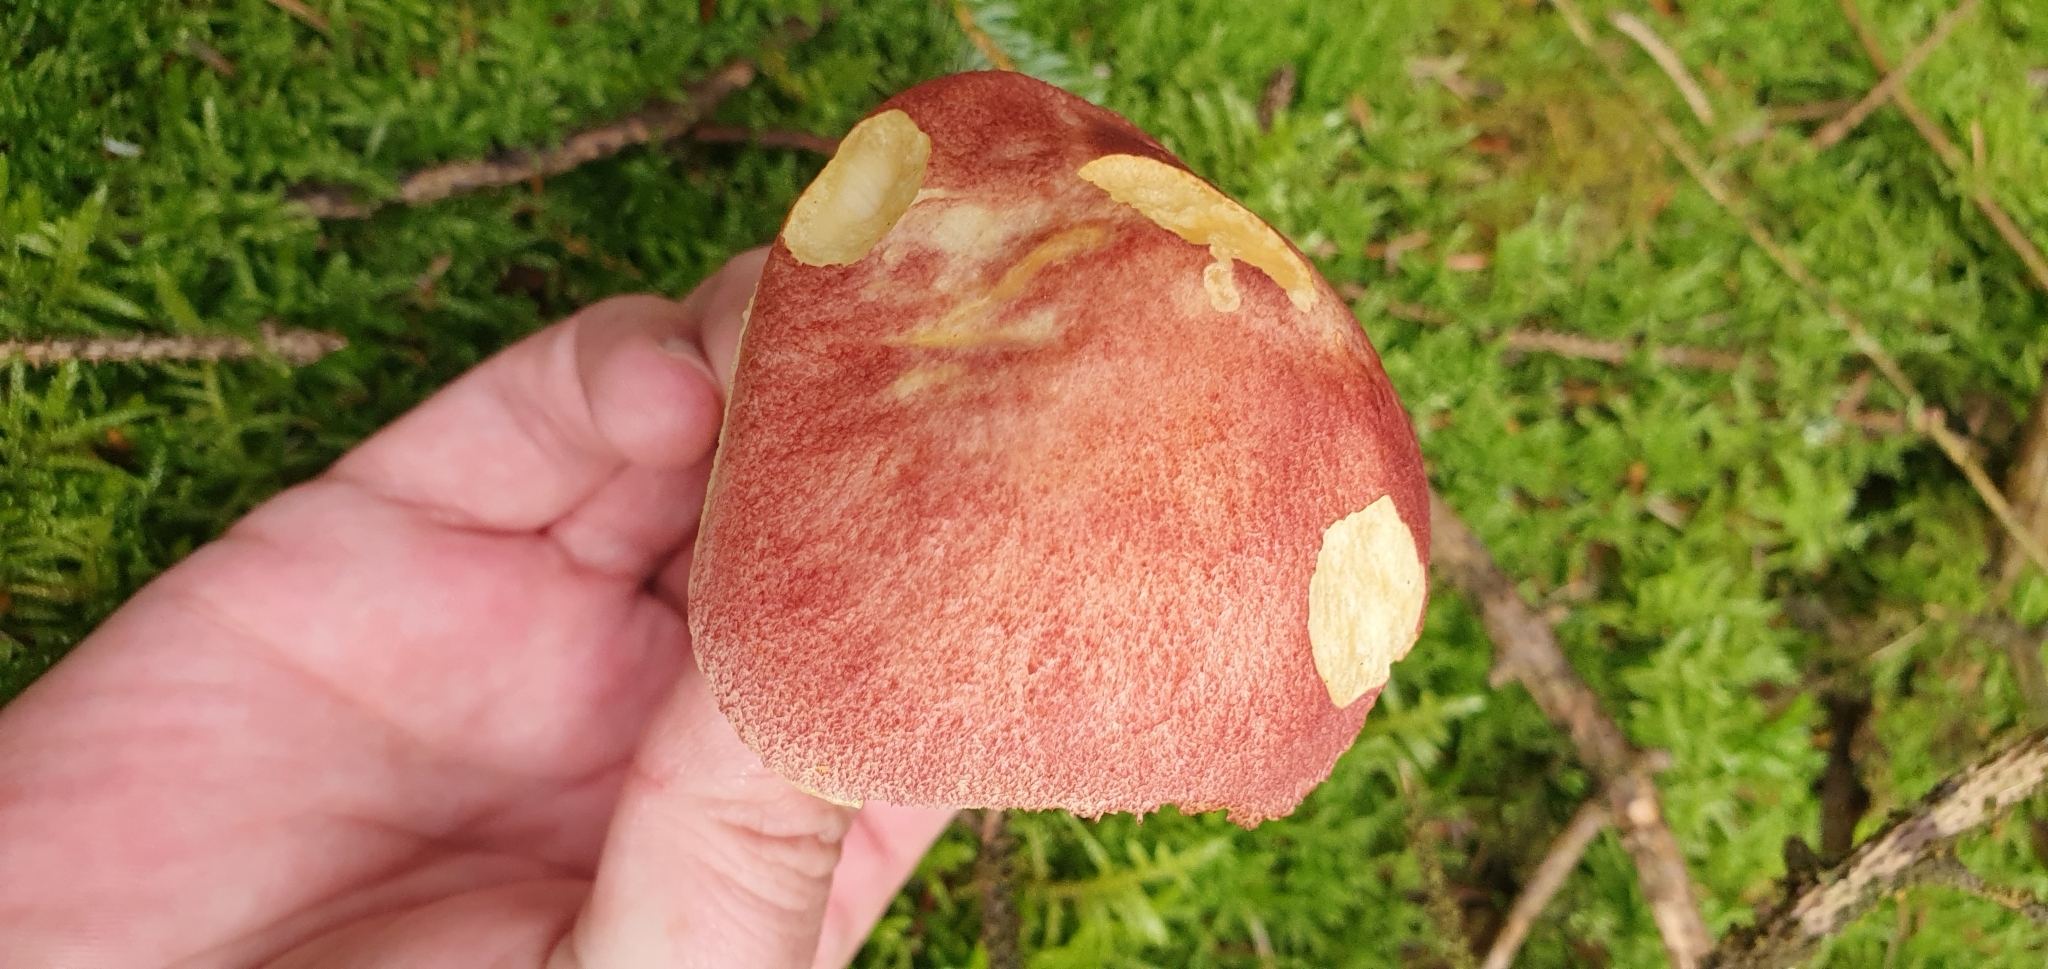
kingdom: Fungi
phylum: Basidiomycota
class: Agaricomycetes
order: Agaricales
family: Tricholomataceae
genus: Tricholomopsis
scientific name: Tricholomopsis rutilans
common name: Plums and custard
